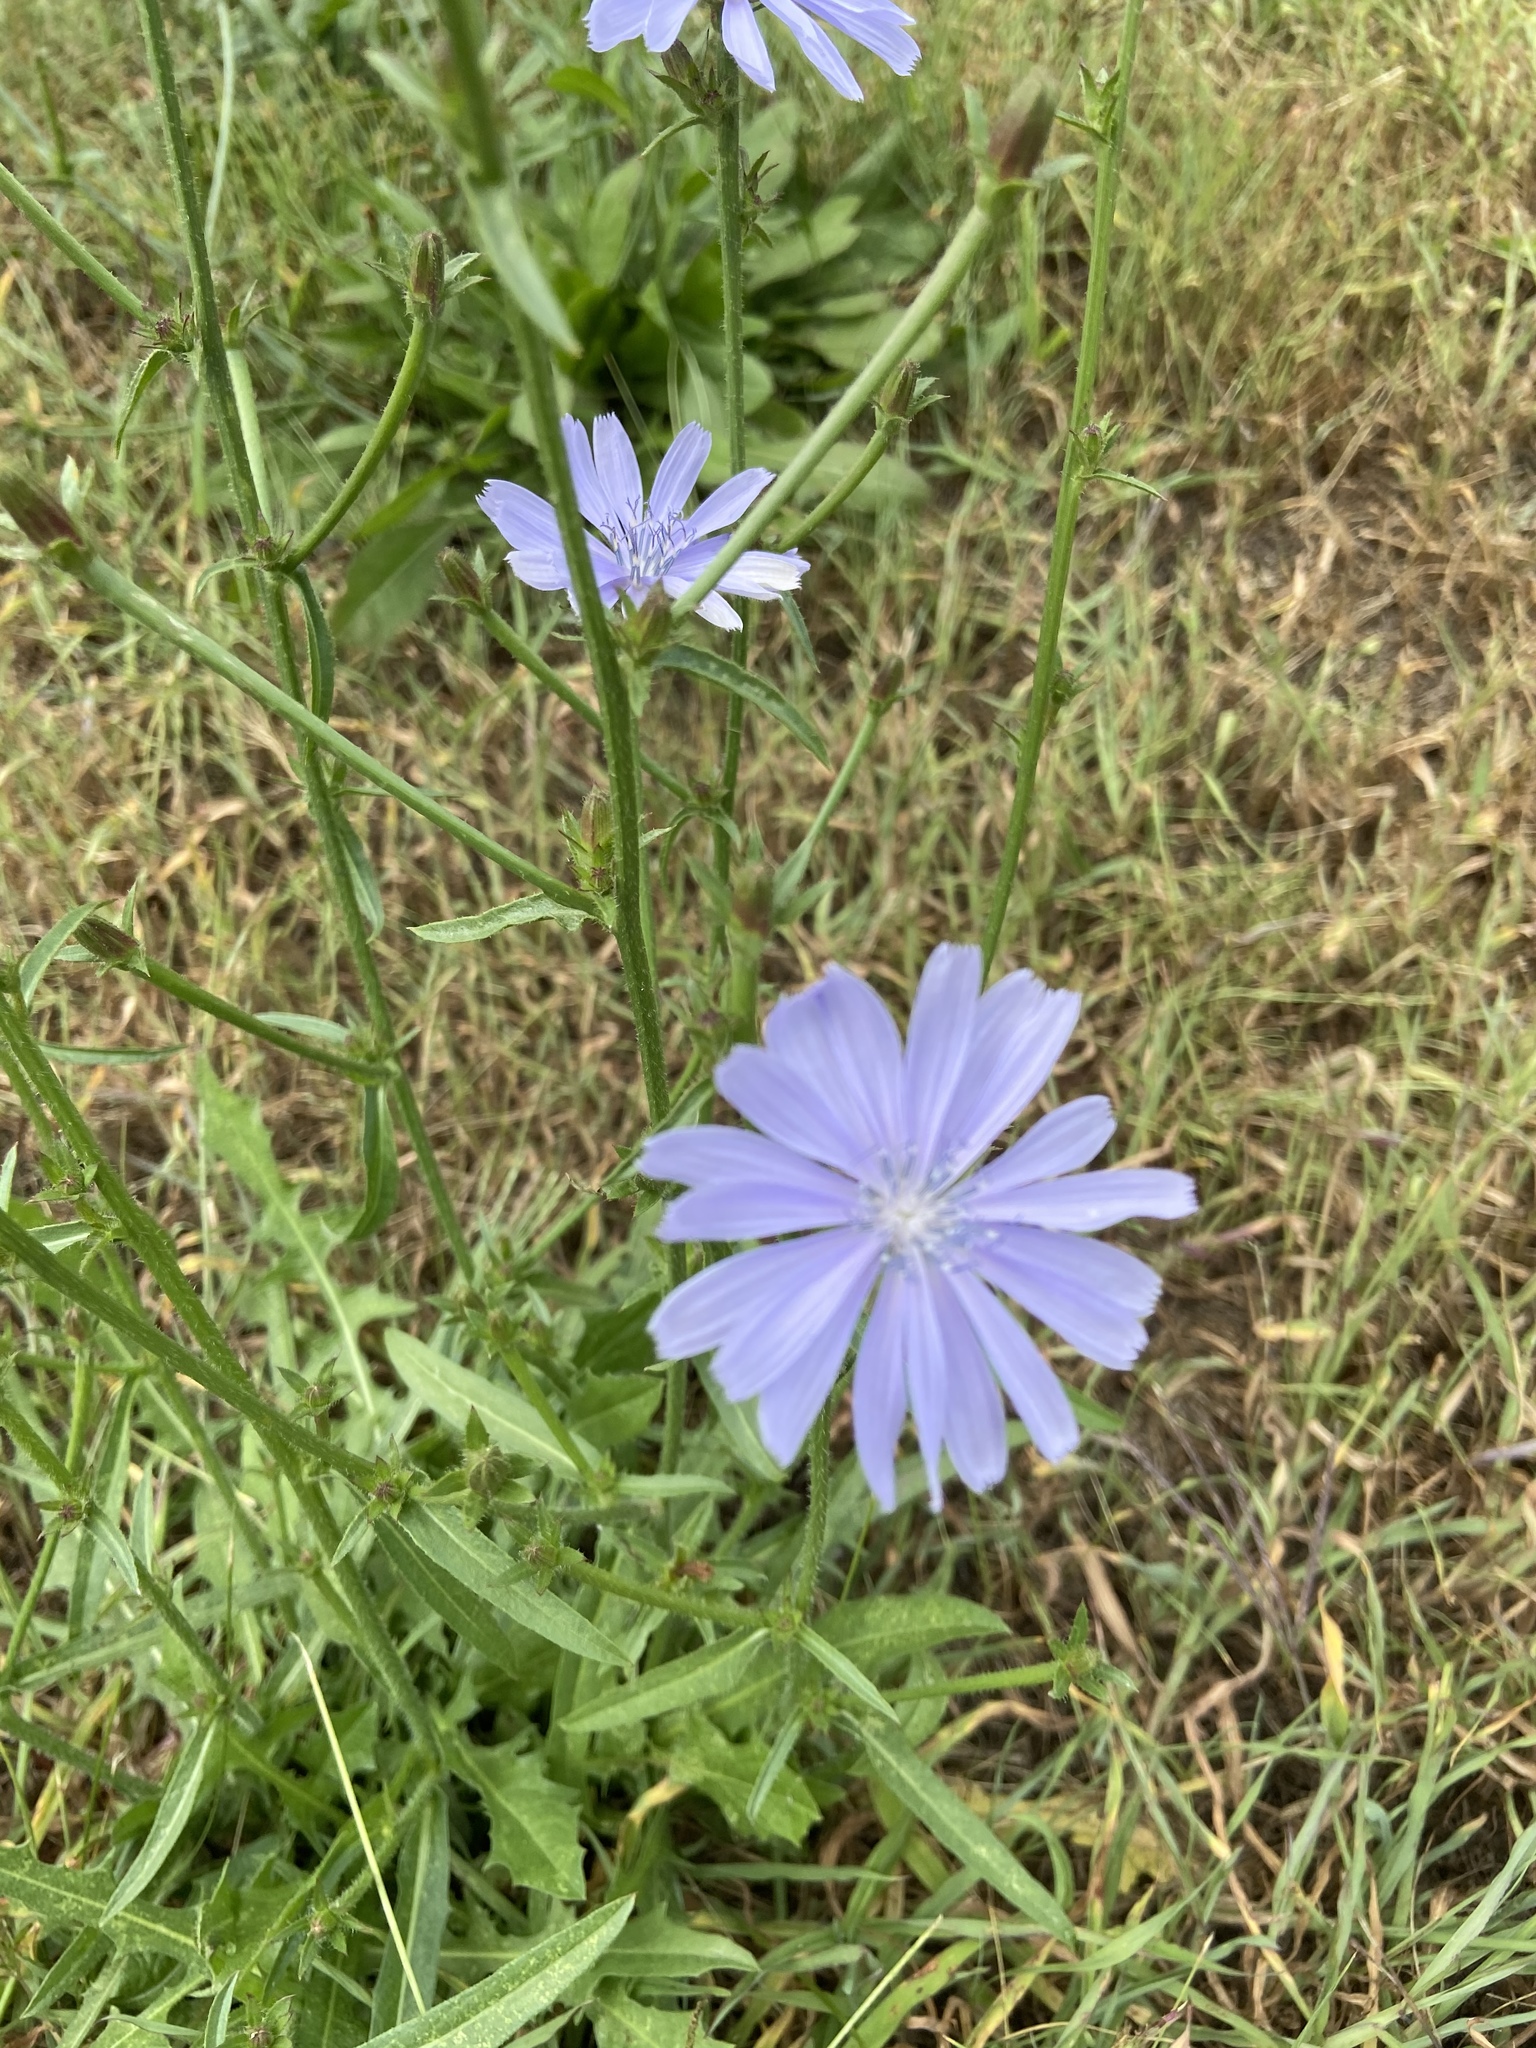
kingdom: Plantae
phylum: Tracheophyta
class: Magnoliopsida
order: Asterales
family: Asteraceae
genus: Cichorium
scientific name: Cichorium intybus
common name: Chicory
